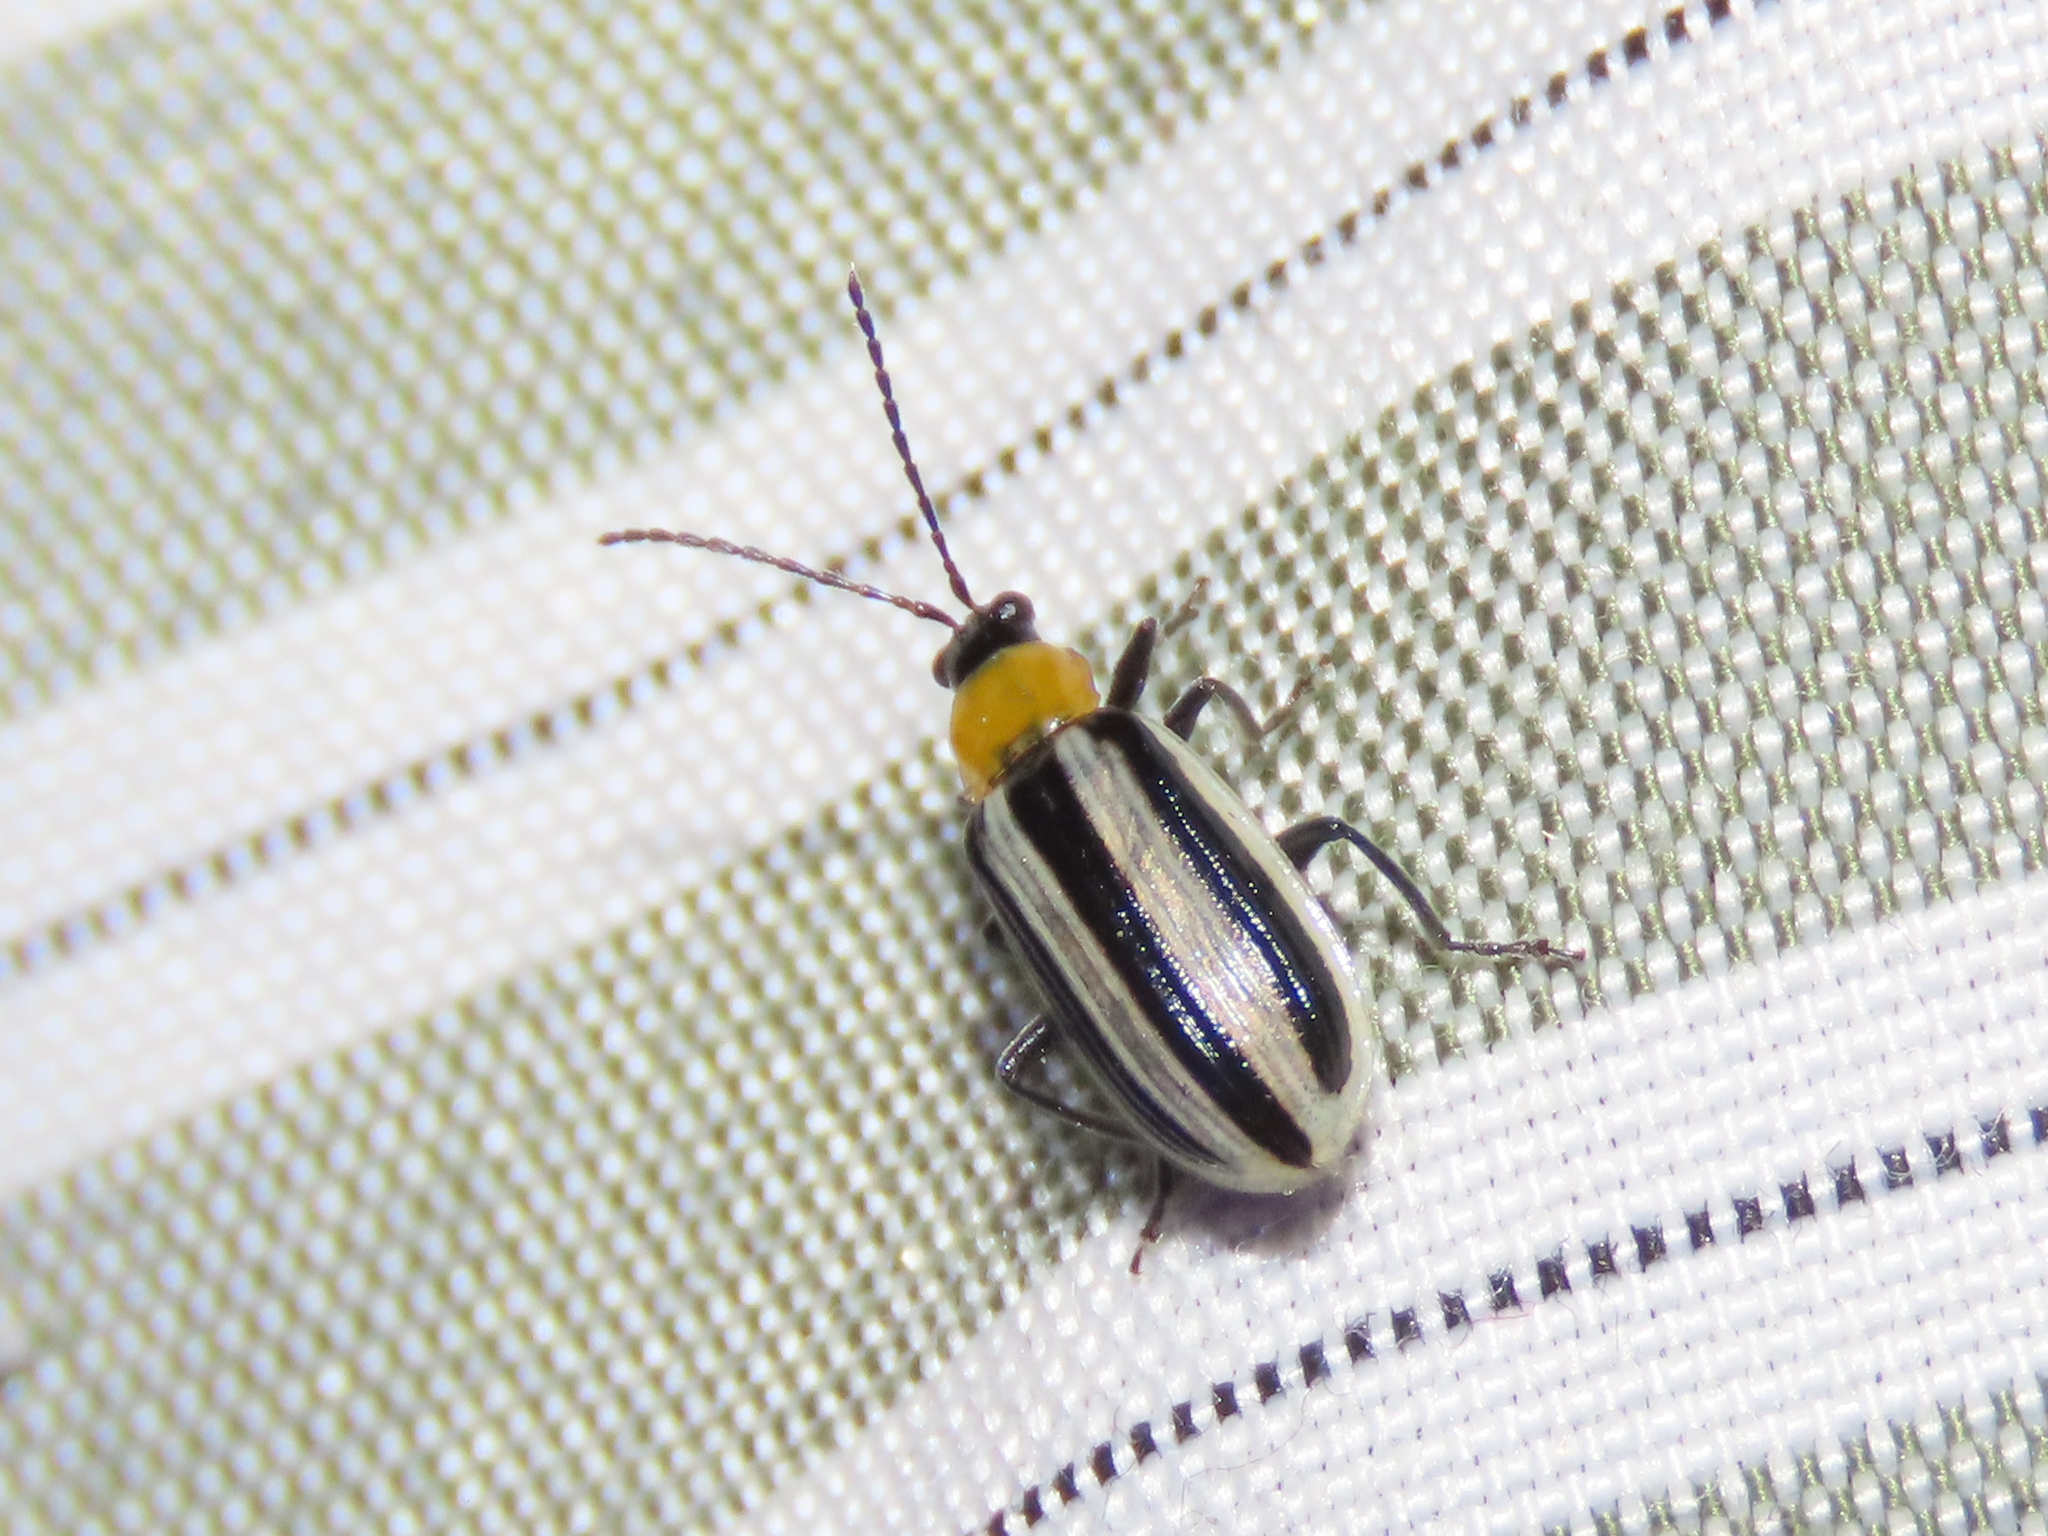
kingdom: Animalia
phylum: Arthropoda
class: Insecta
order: Coleoptera
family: Chrysomelidae
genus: Acalymma
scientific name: Acalymma trivittatum
